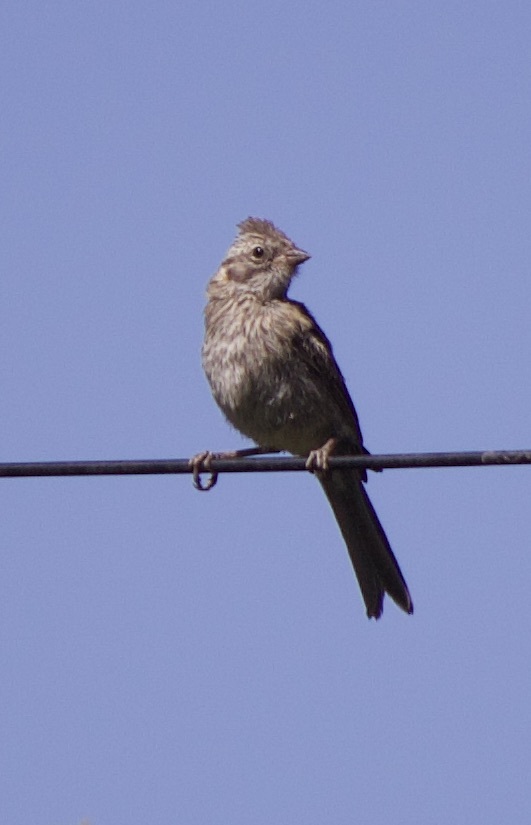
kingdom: Animalia
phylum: Chordata
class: Aves
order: Passeriformes
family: Passerellidae
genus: Zonotrichia
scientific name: Zonotrichia capensis
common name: Rufous-collared sparrow
